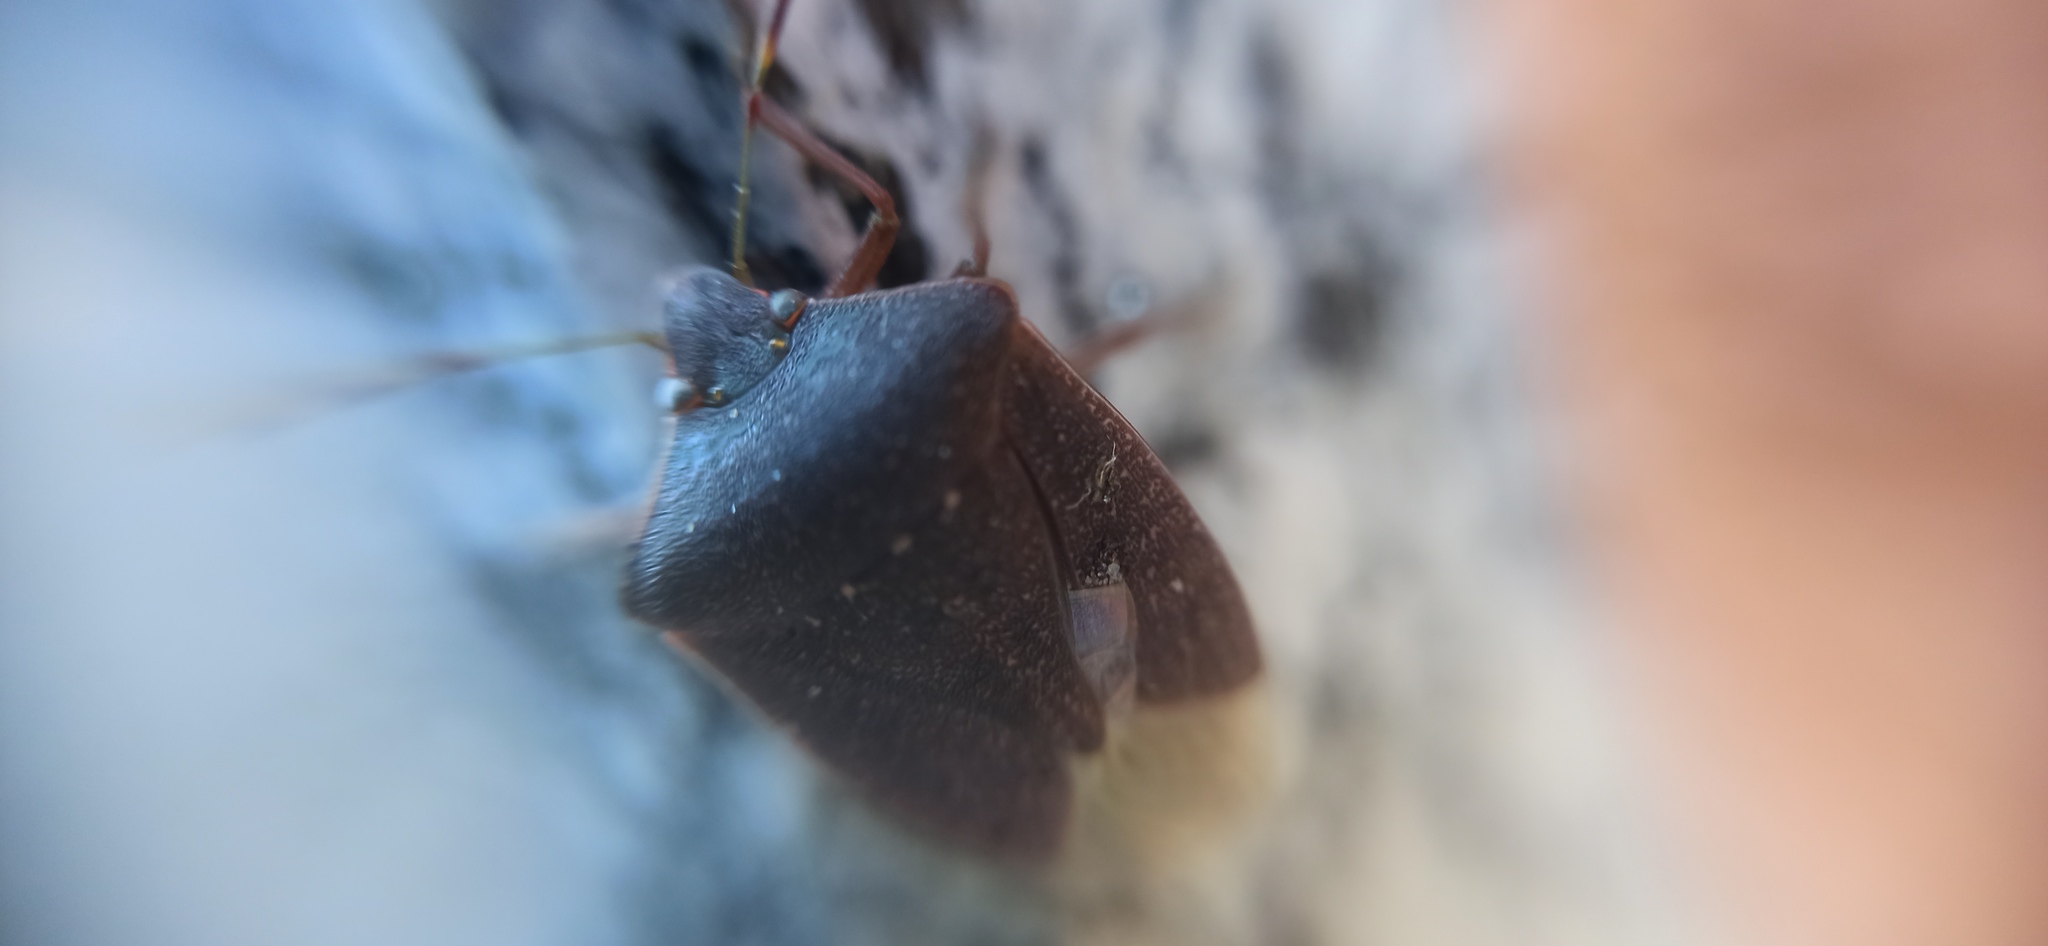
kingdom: Animalia
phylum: Arthropoda
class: Insecta
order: Hemiptera
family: Pentatomidae
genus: Nezara
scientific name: Nezara viridula
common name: Southern green stink bug
